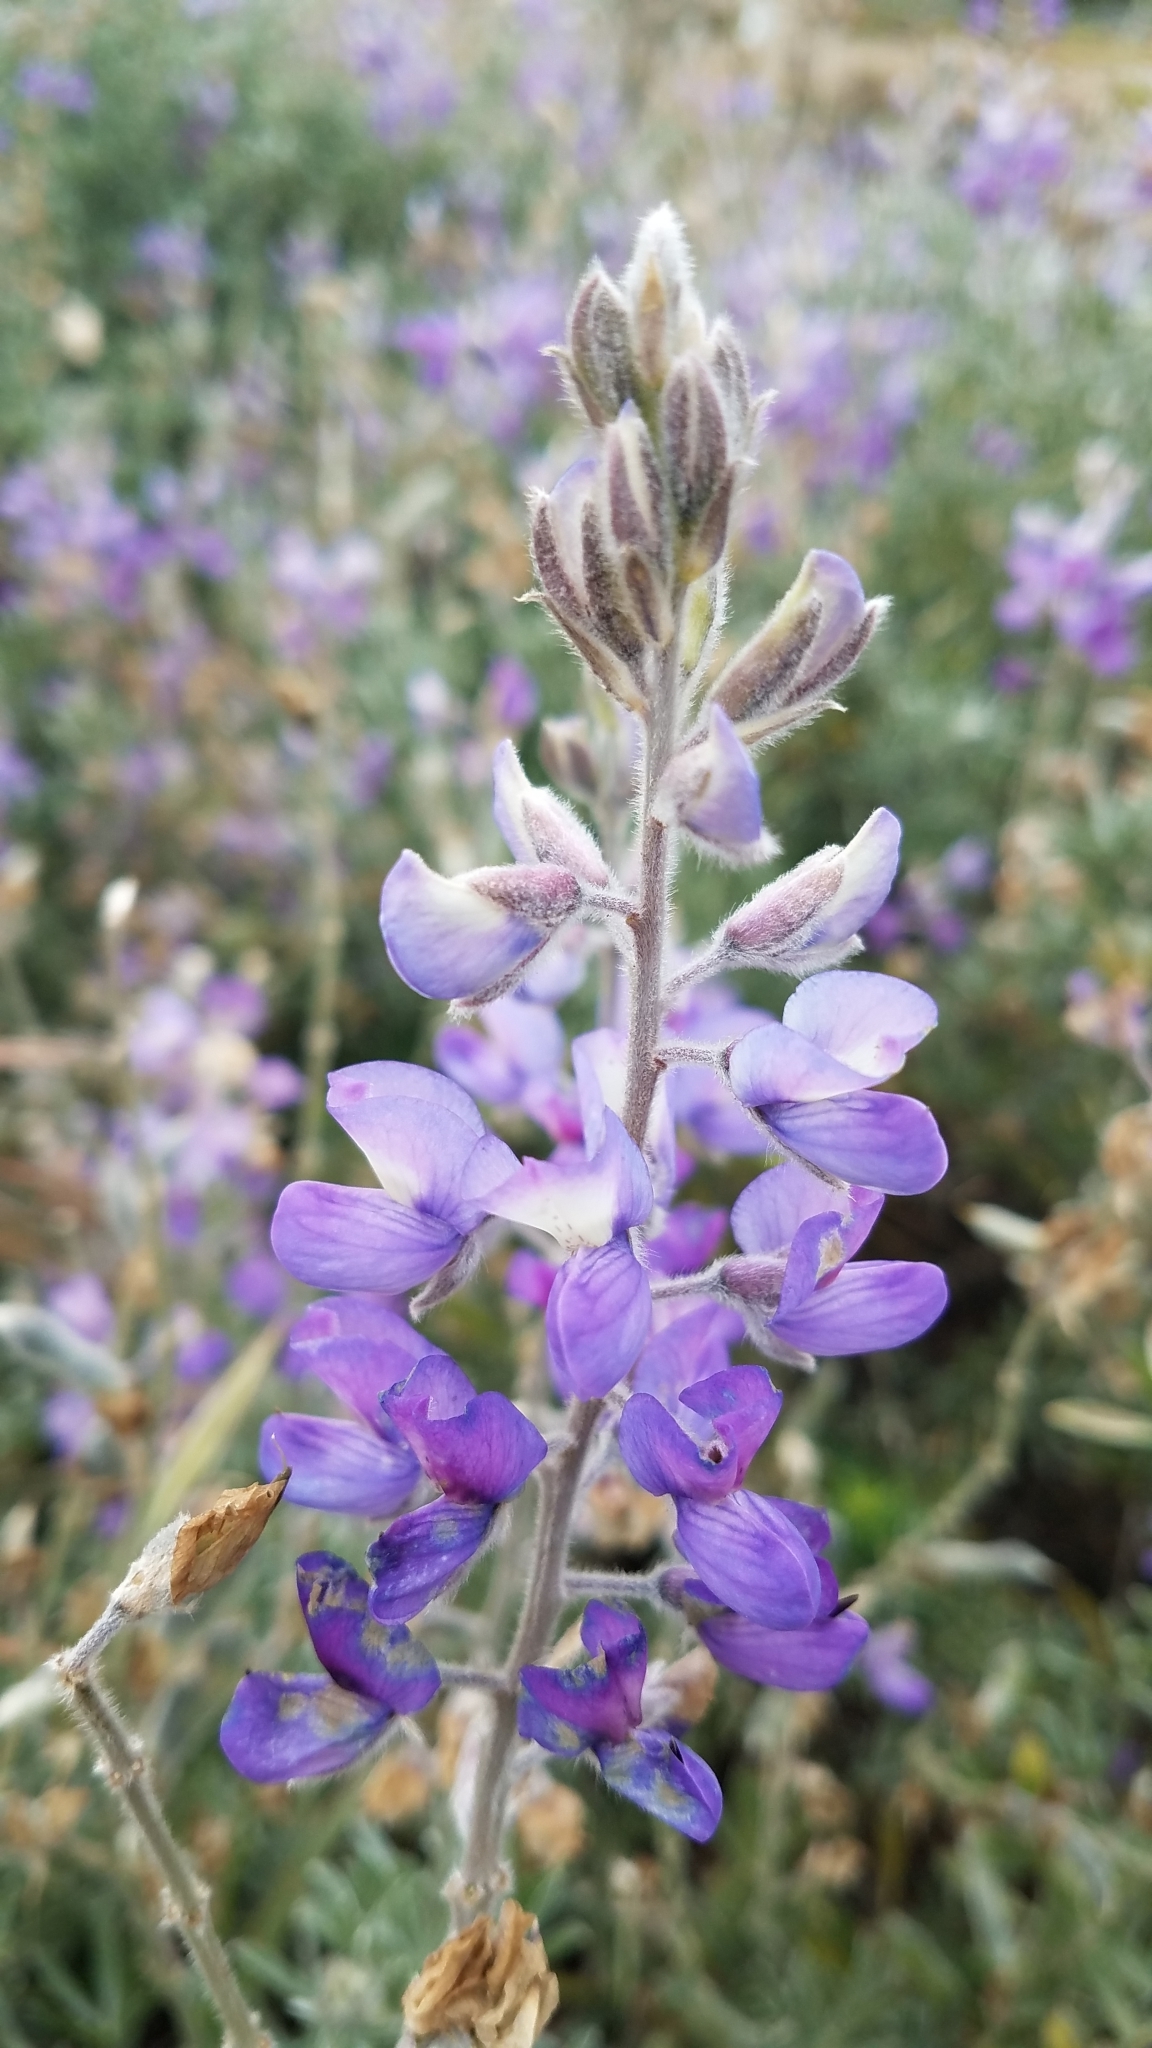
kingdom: Plantae
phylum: Tracheophyta
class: Magnoliopsida
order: Fabales
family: Fabaceae
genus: Lupinus
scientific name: Lupinus chamissonis
